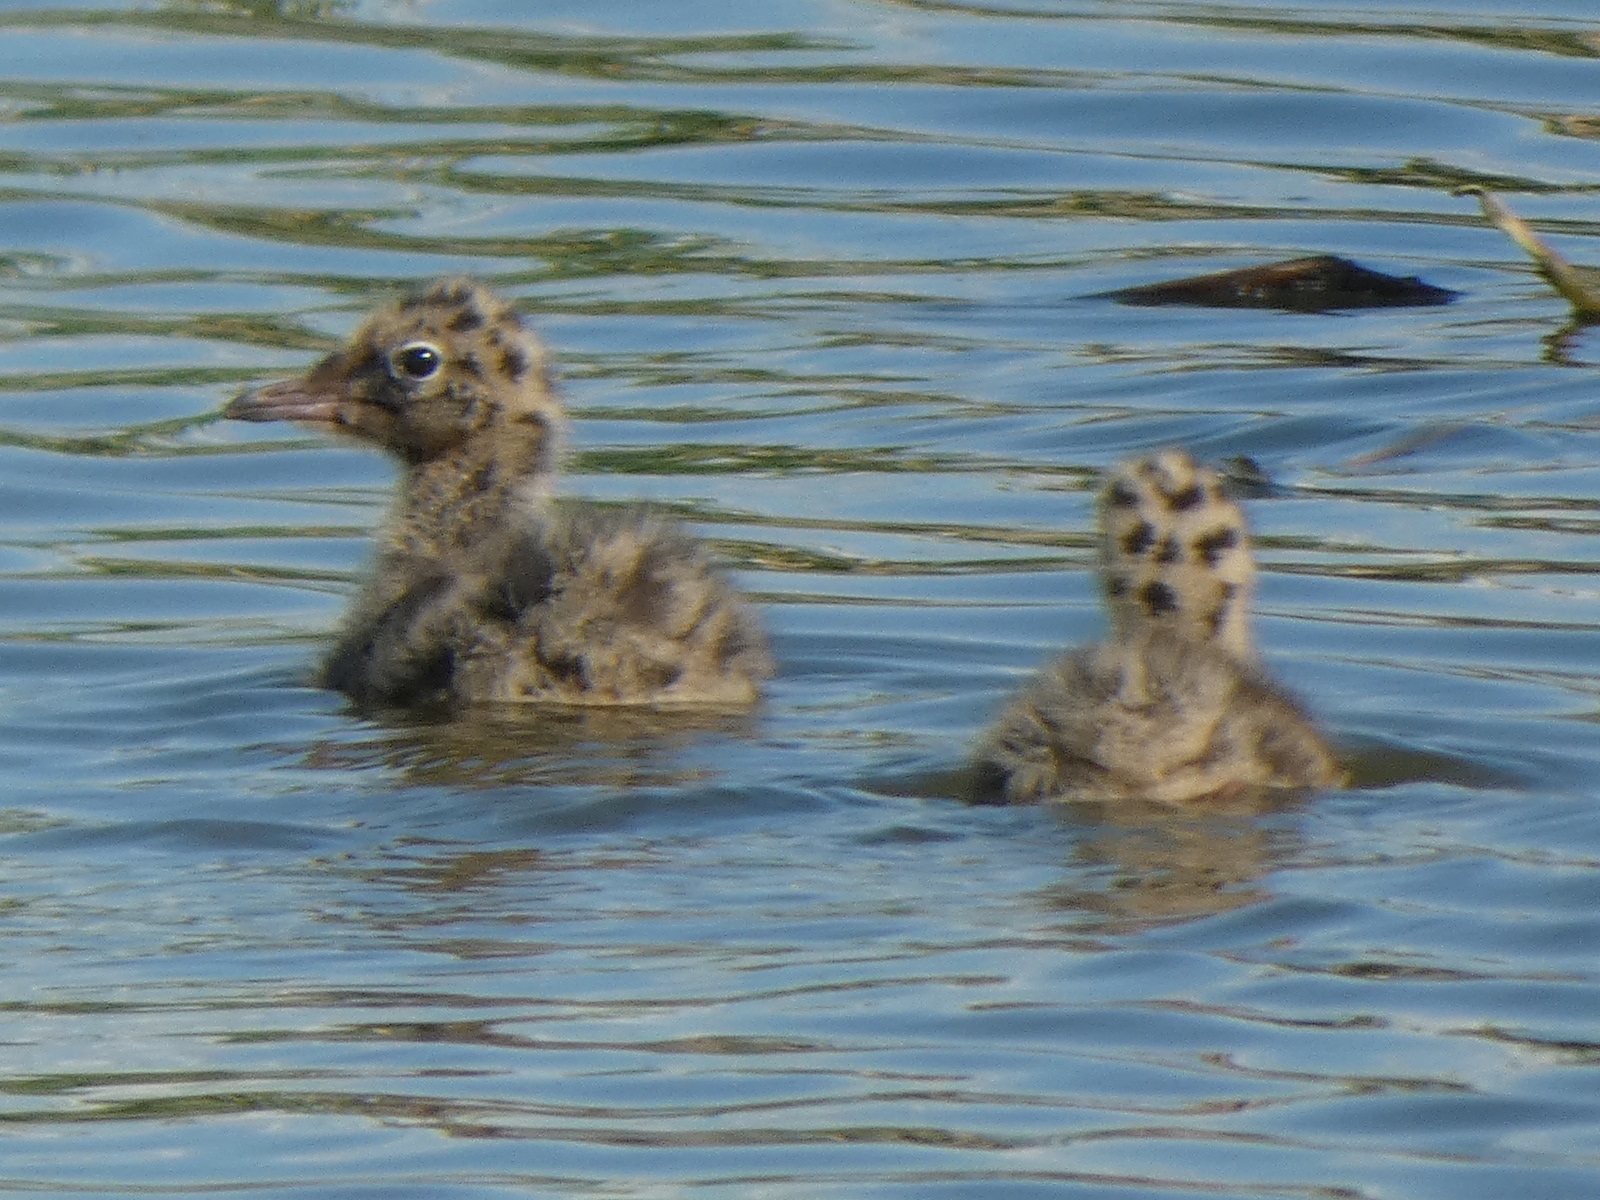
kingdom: Animalia
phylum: Chordata
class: Aves
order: Charadriiformes
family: Laridae
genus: Chroicocephalus
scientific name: Chroicocephalus ridibundus
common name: Black-headed gull
